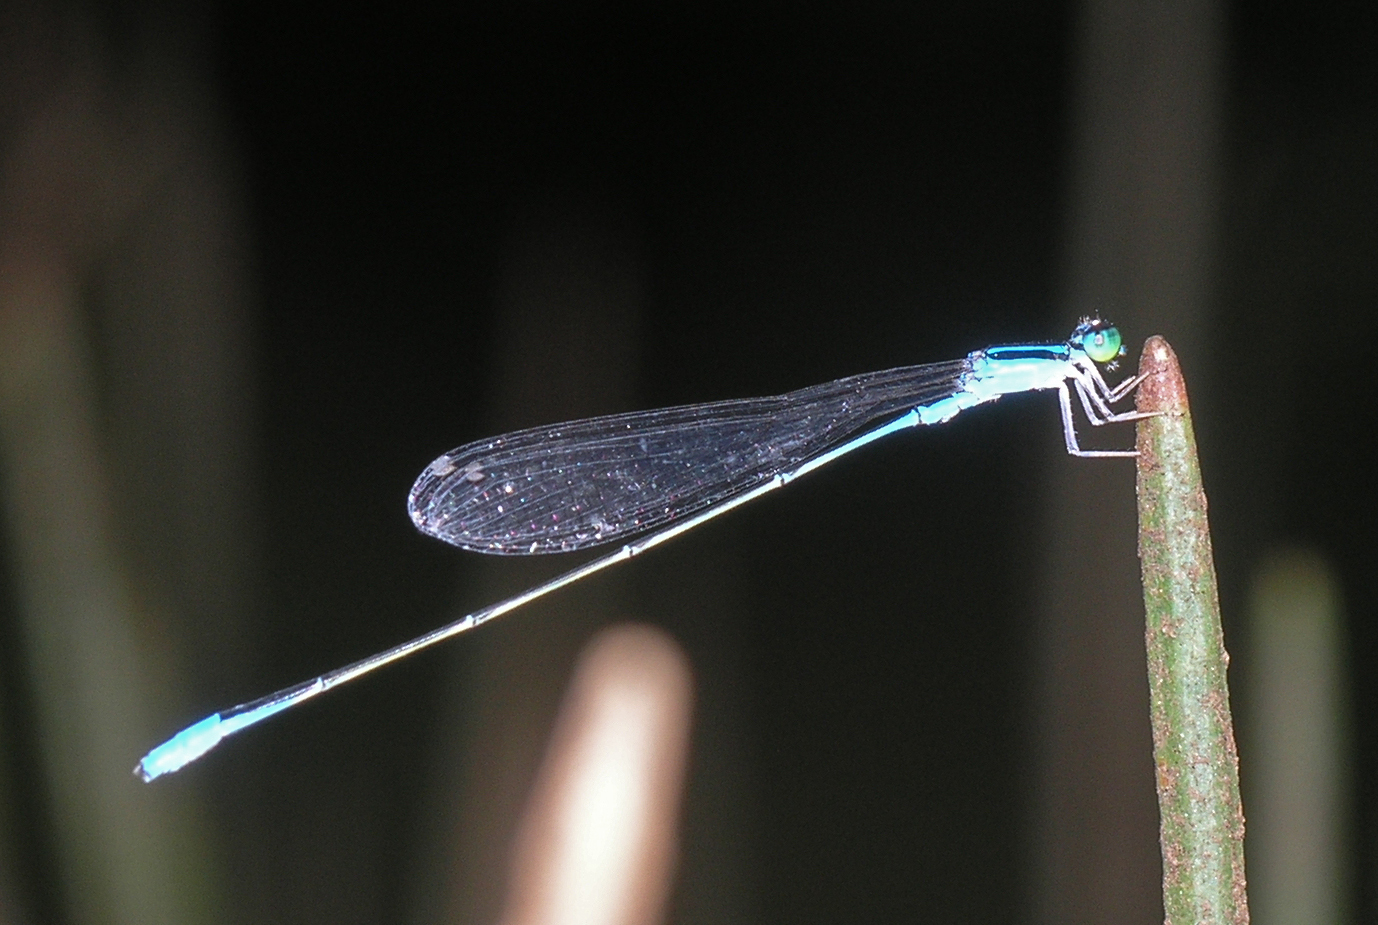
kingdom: Animalia
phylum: Arthropoda
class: Insecta
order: Odonata
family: Coenagrionidae
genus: Aciagrion
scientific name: Aciagrion hisopa
